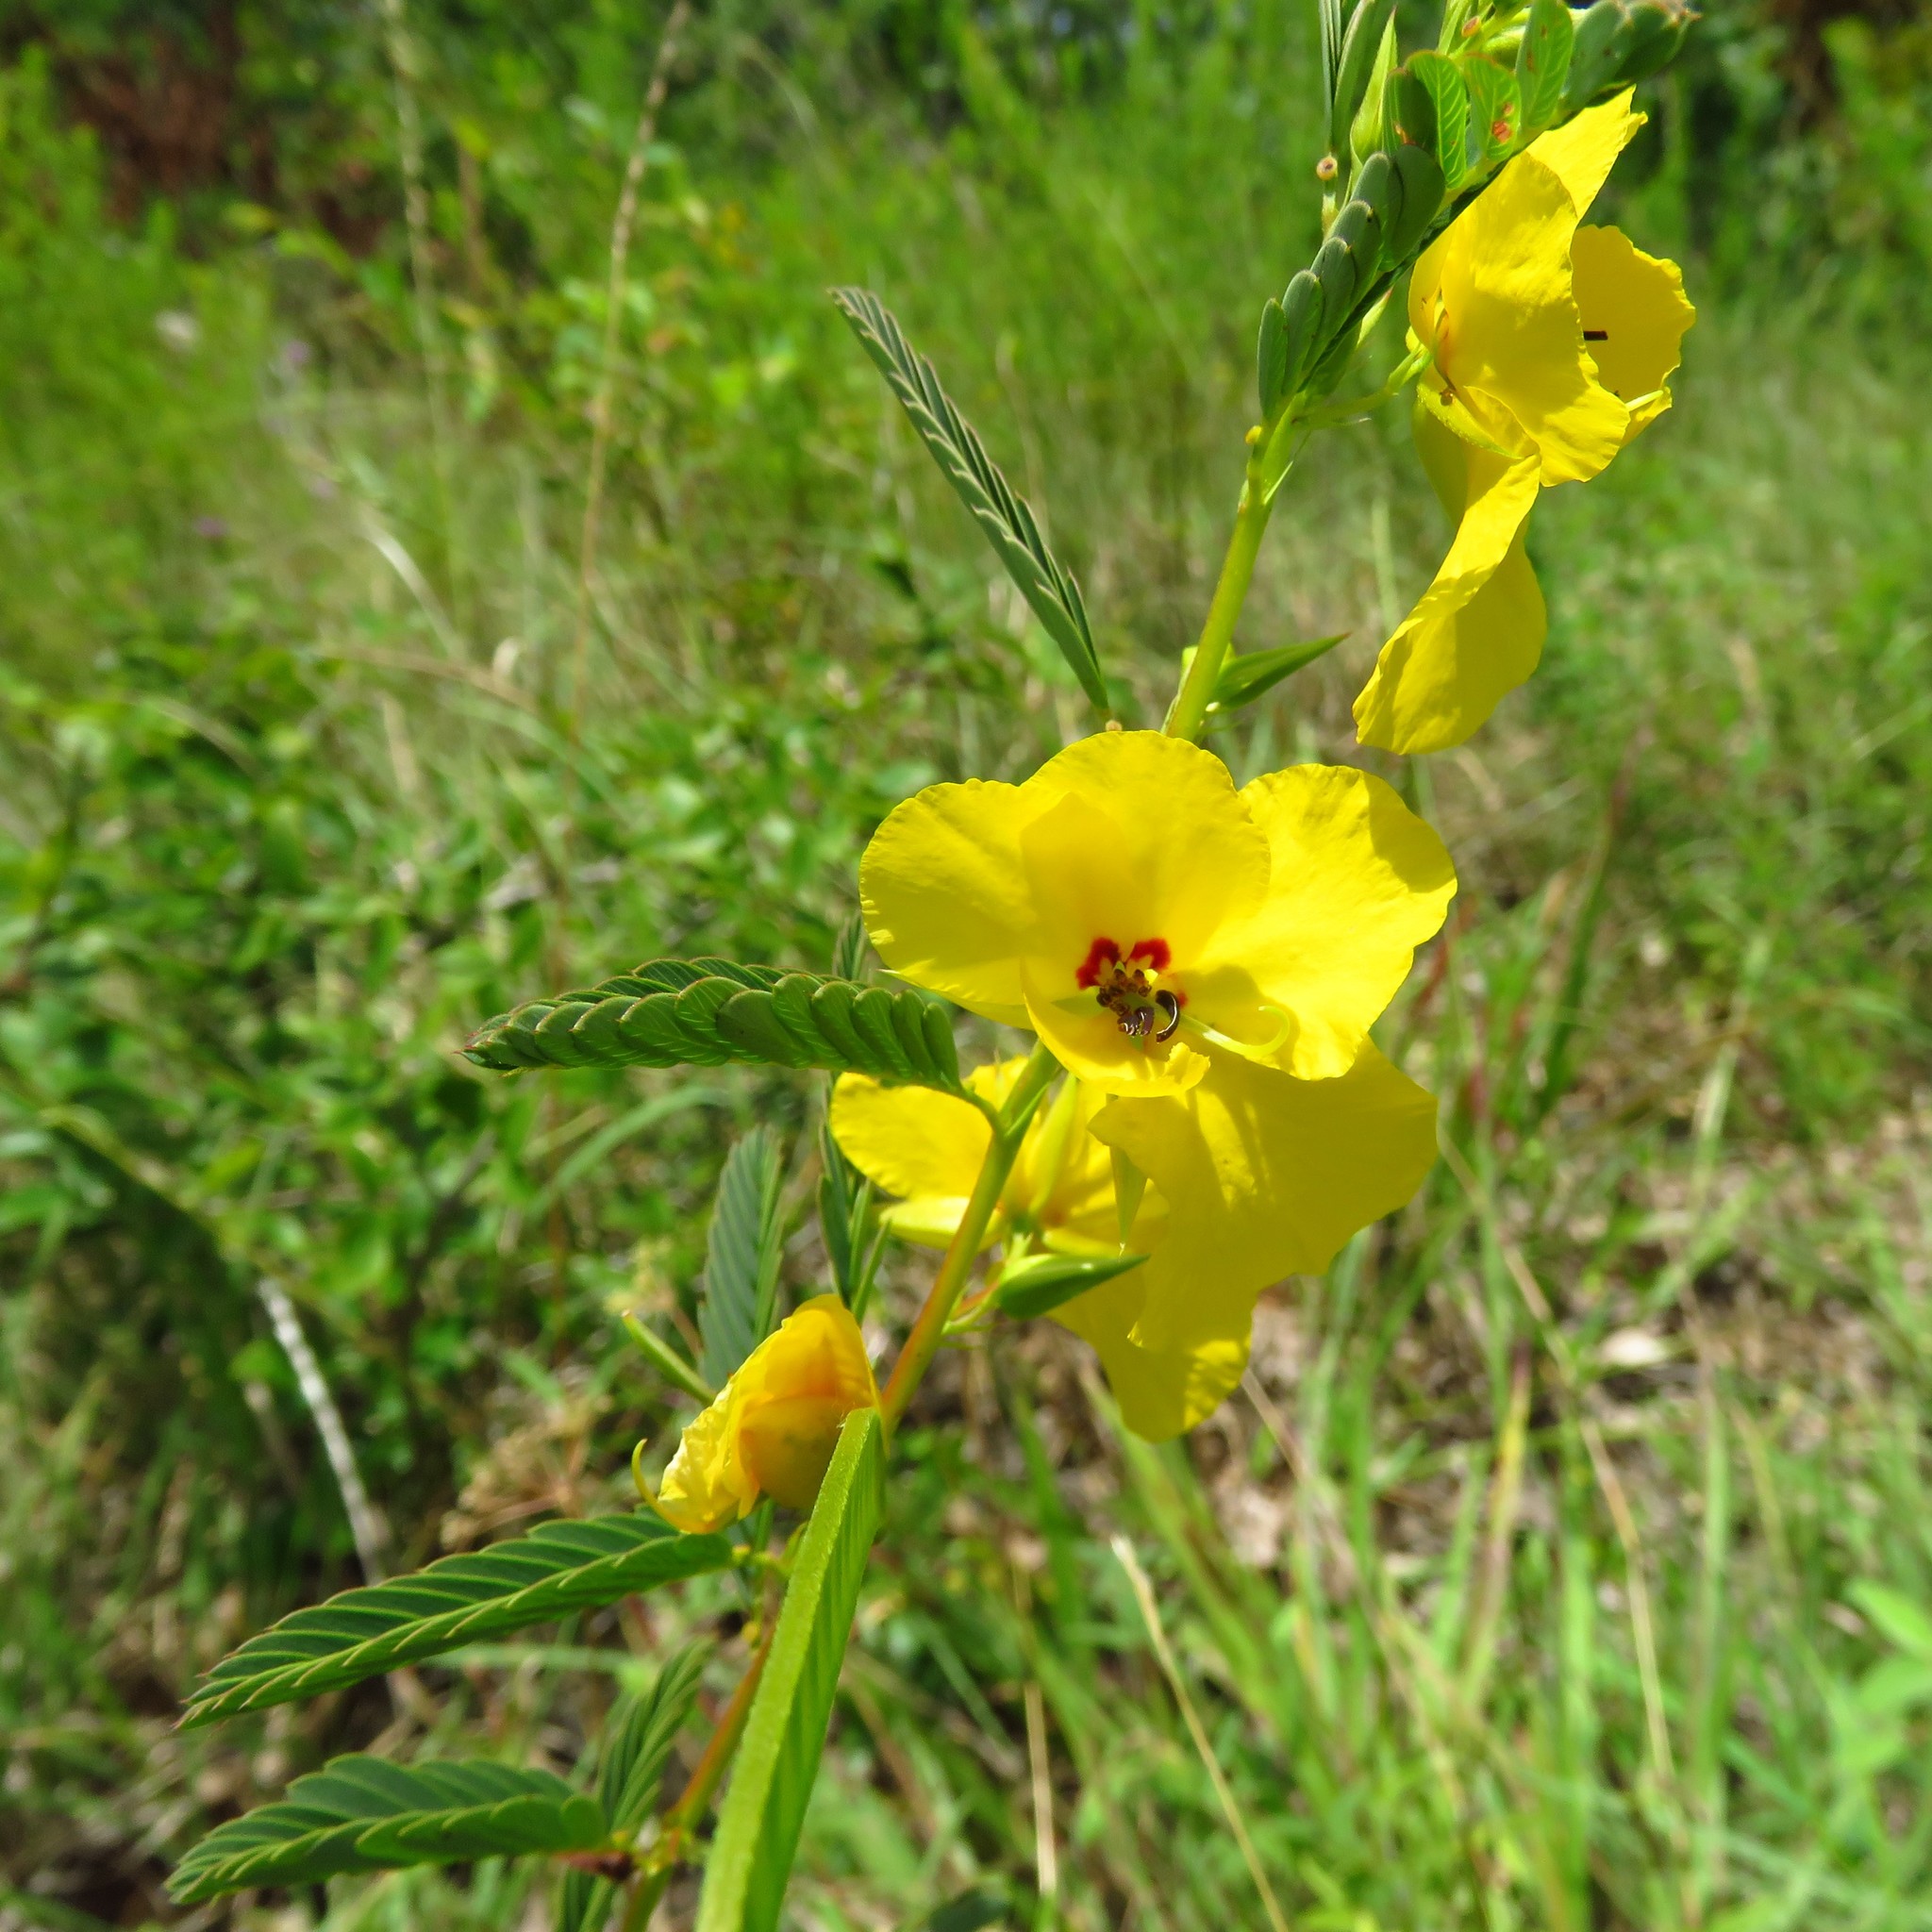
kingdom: Plantae
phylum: Tracheophyta
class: Magnoliopsida
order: Fabales
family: Fabaceae
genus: Chamaecrista
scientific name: Chamaecrista fasciculata
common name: Golden cassia
